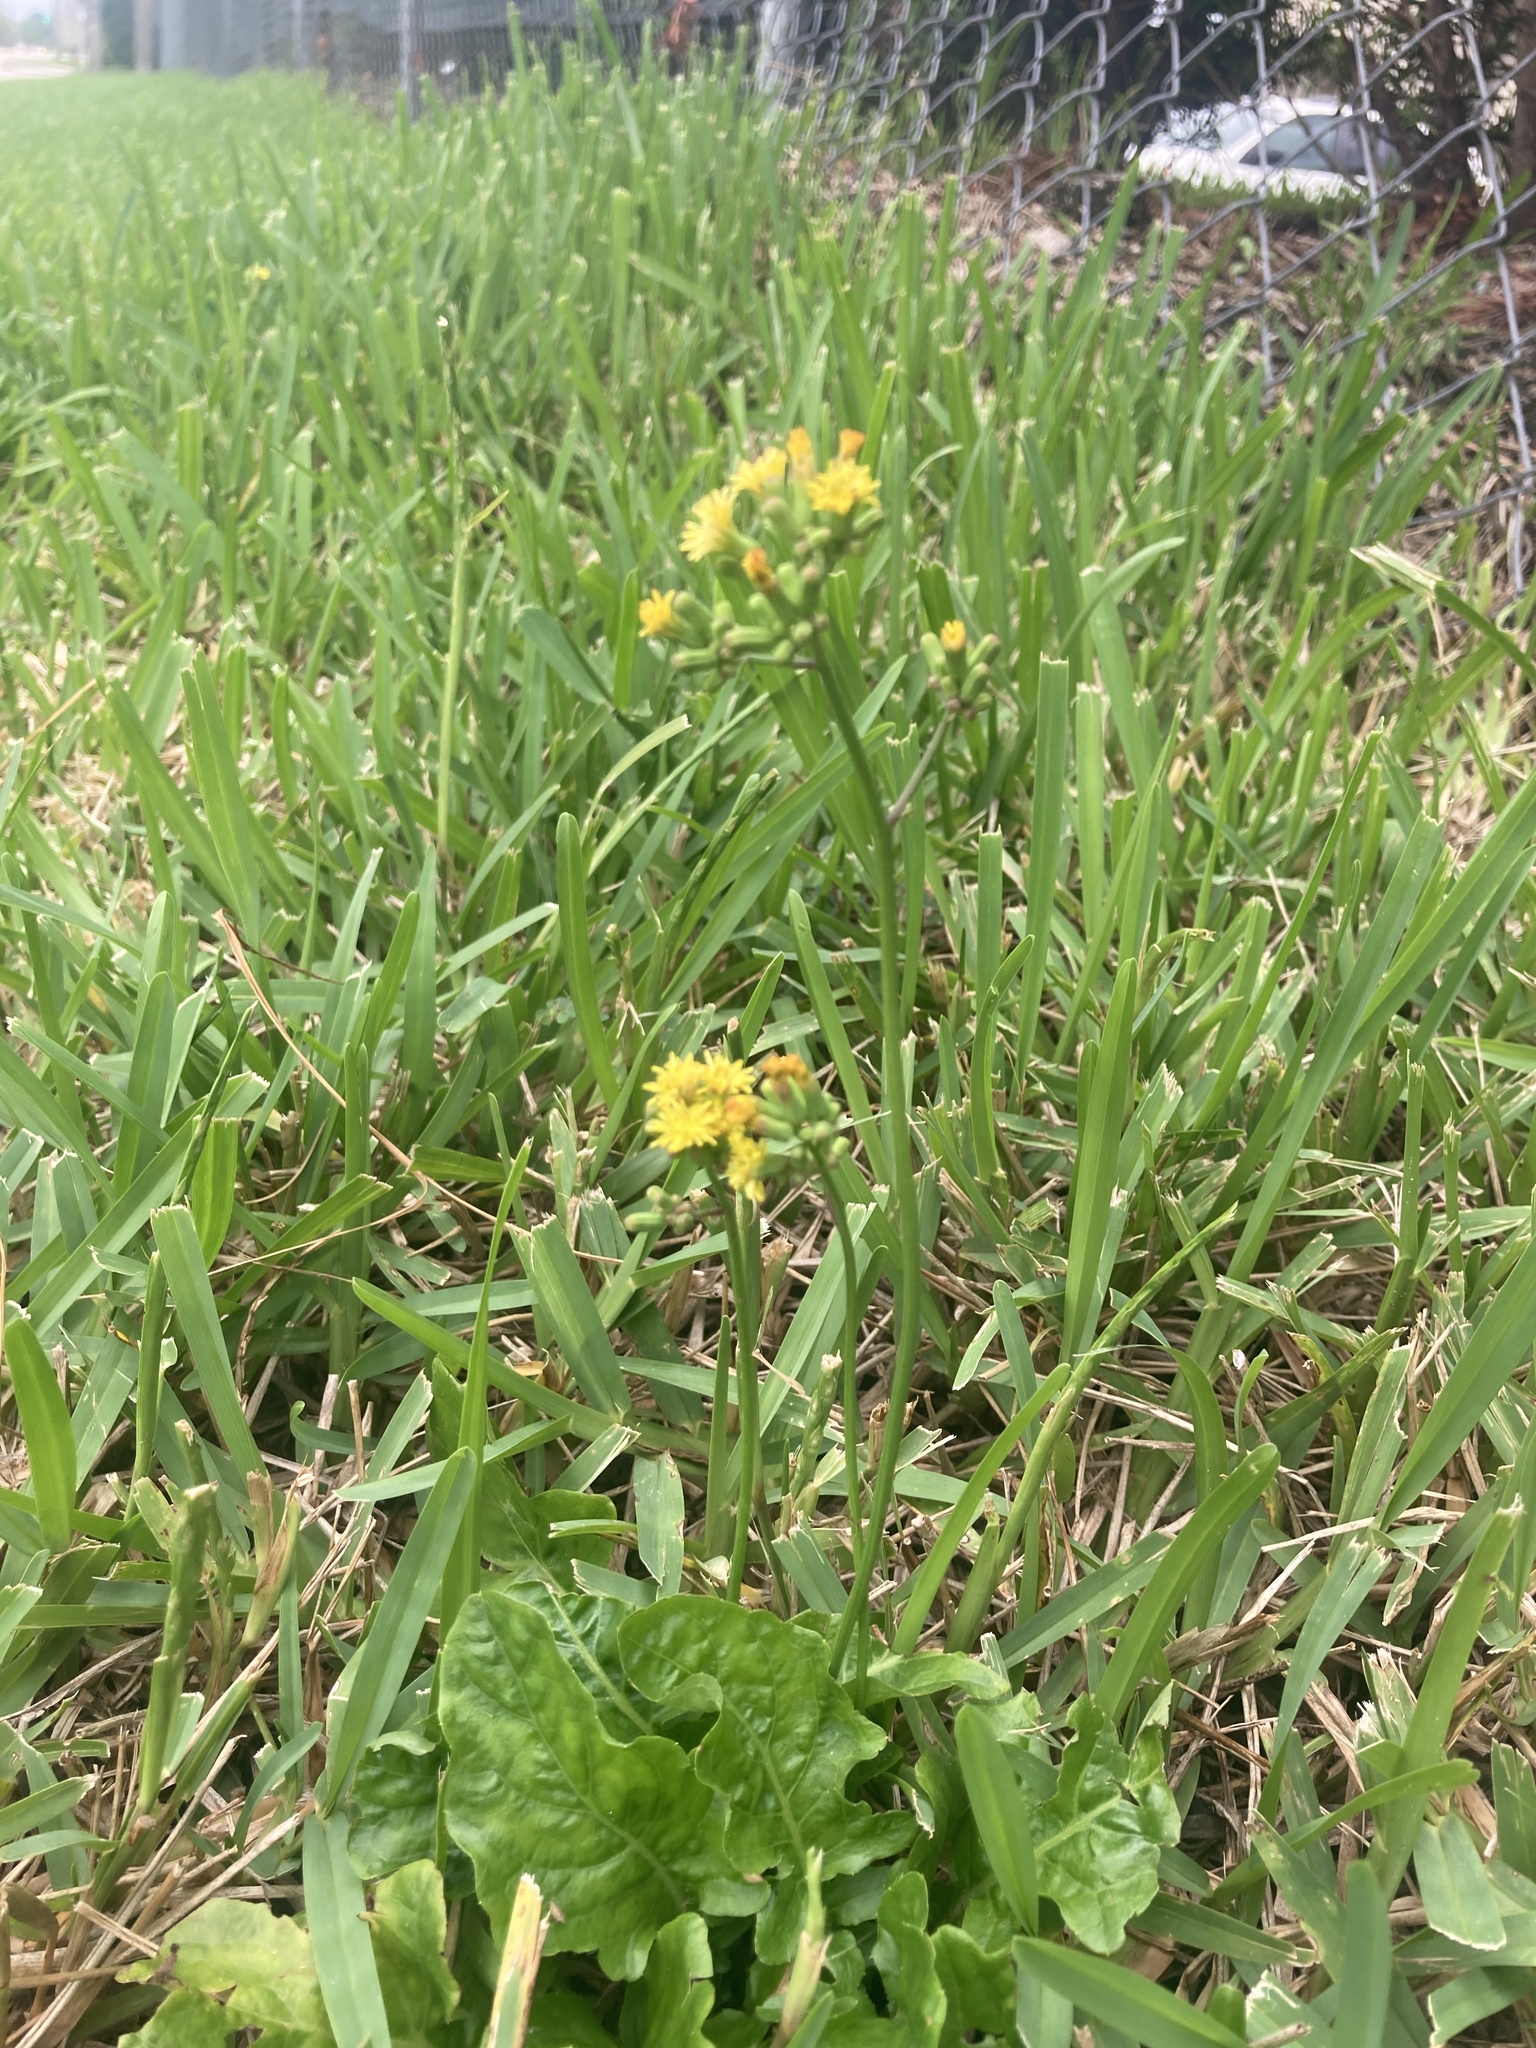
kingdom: Plantae
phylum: Tracheophyta
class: Magnoliopsida
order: Asterales
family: Asteraceae
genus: Youngia
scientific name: Youngia japonica
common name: Oriental false hawksbeard
